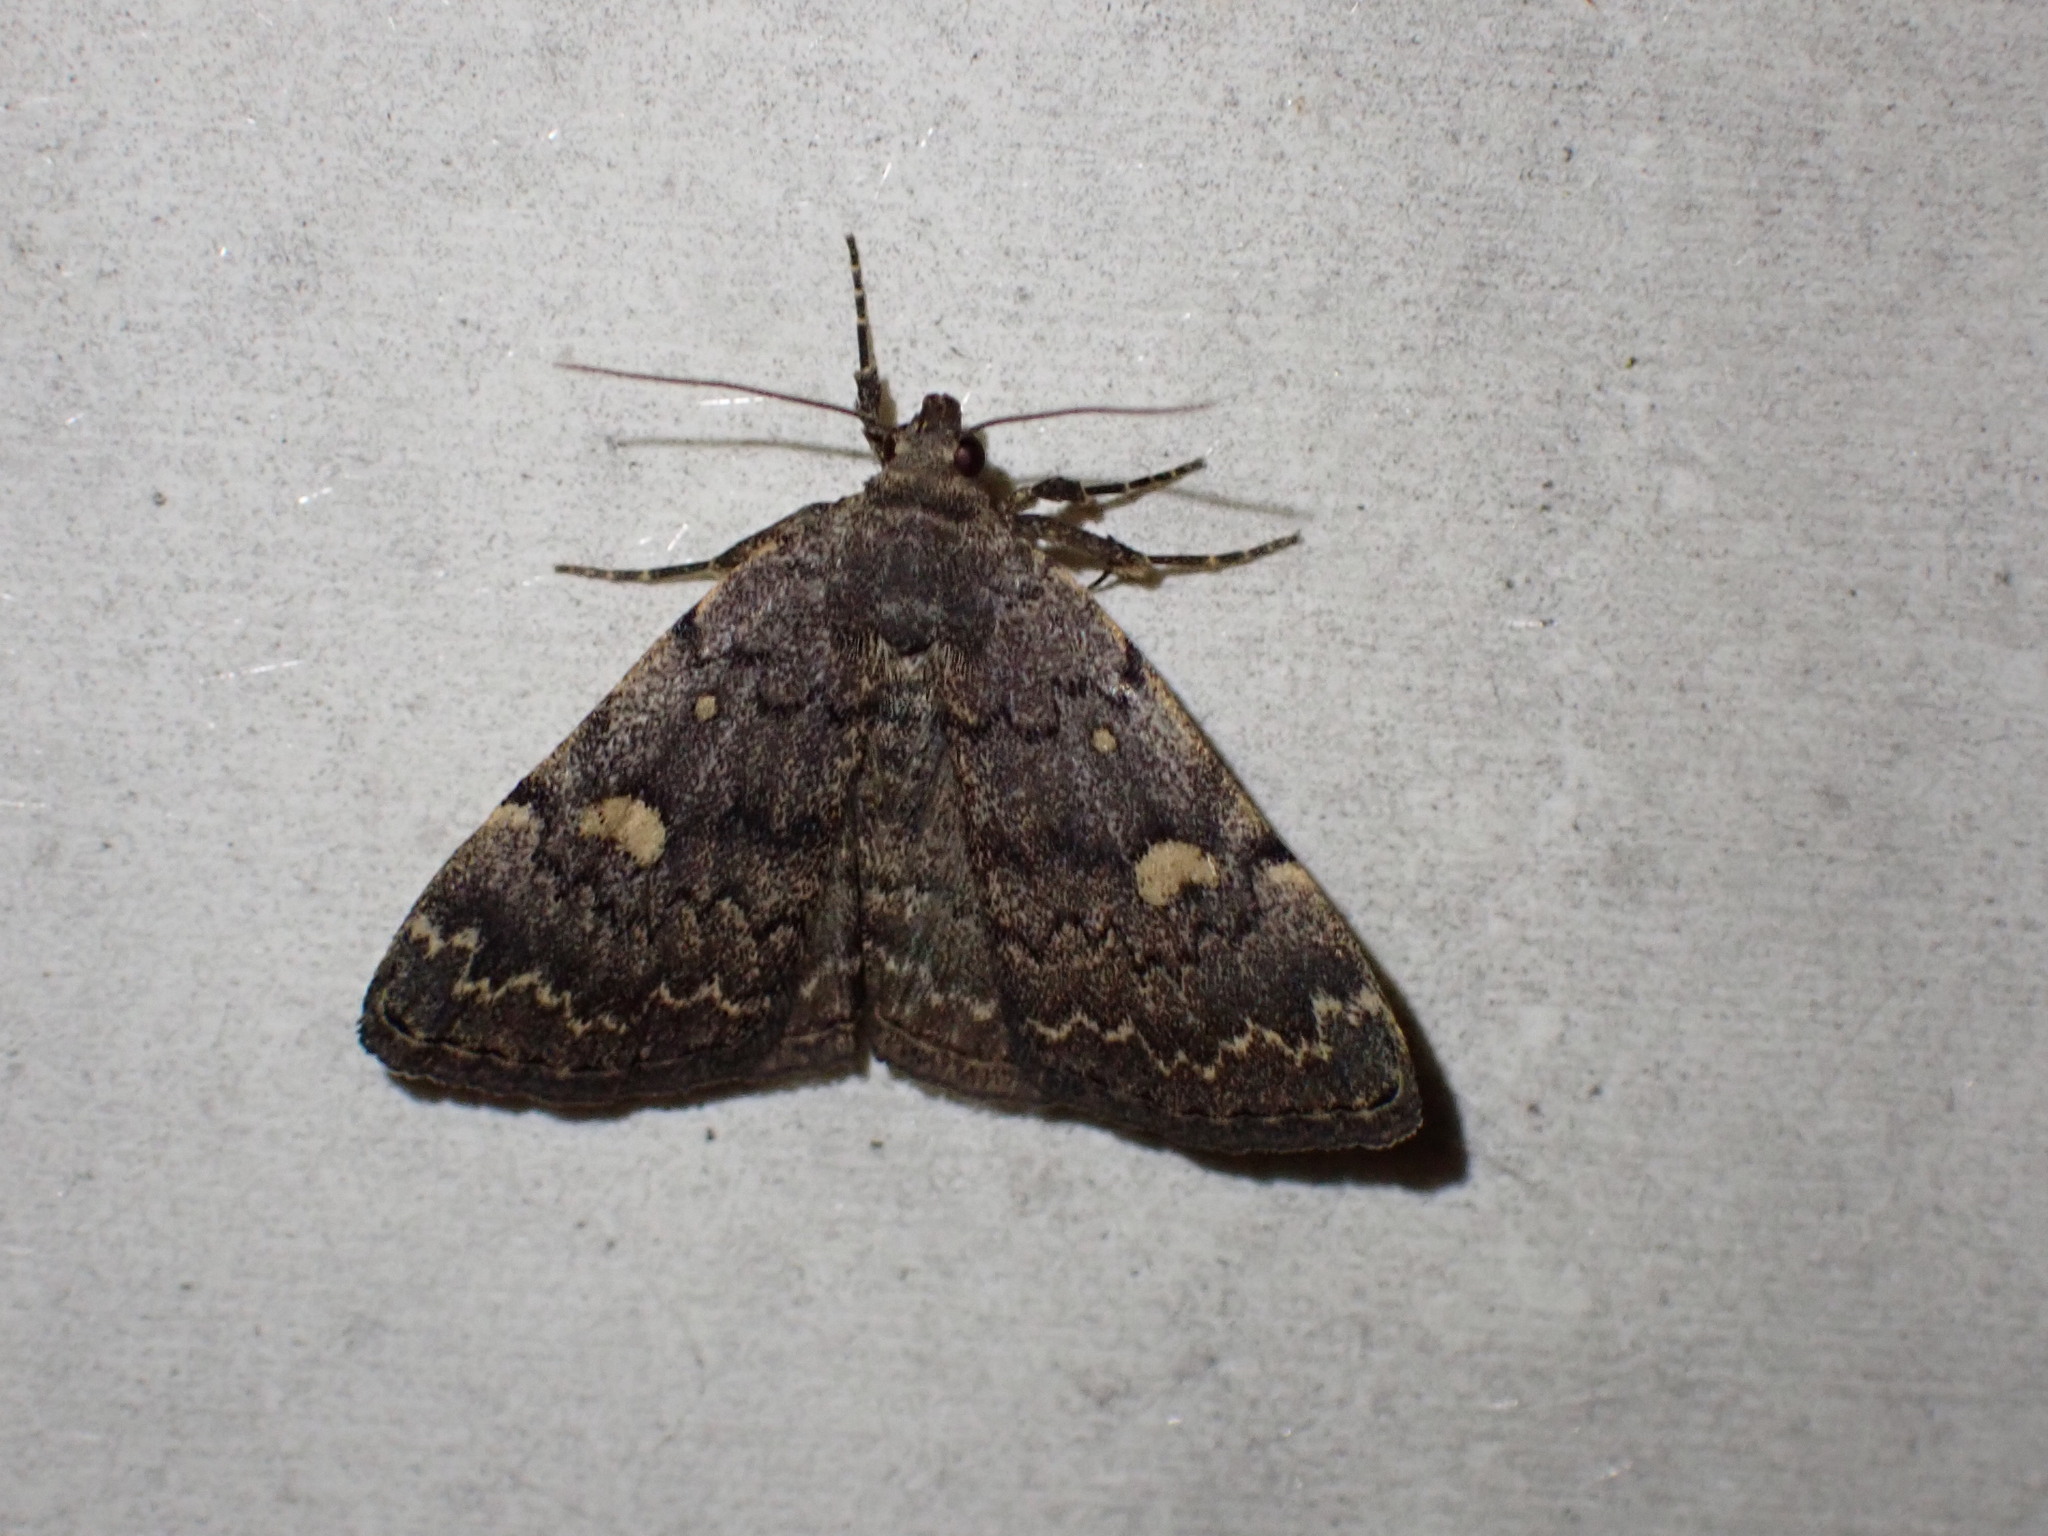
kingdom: Animalia
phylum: Arthropoda
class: Insecta
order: Lepidoptera
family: Erebidae
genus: Idia
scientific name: Idia aemula
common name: Common idia moth
